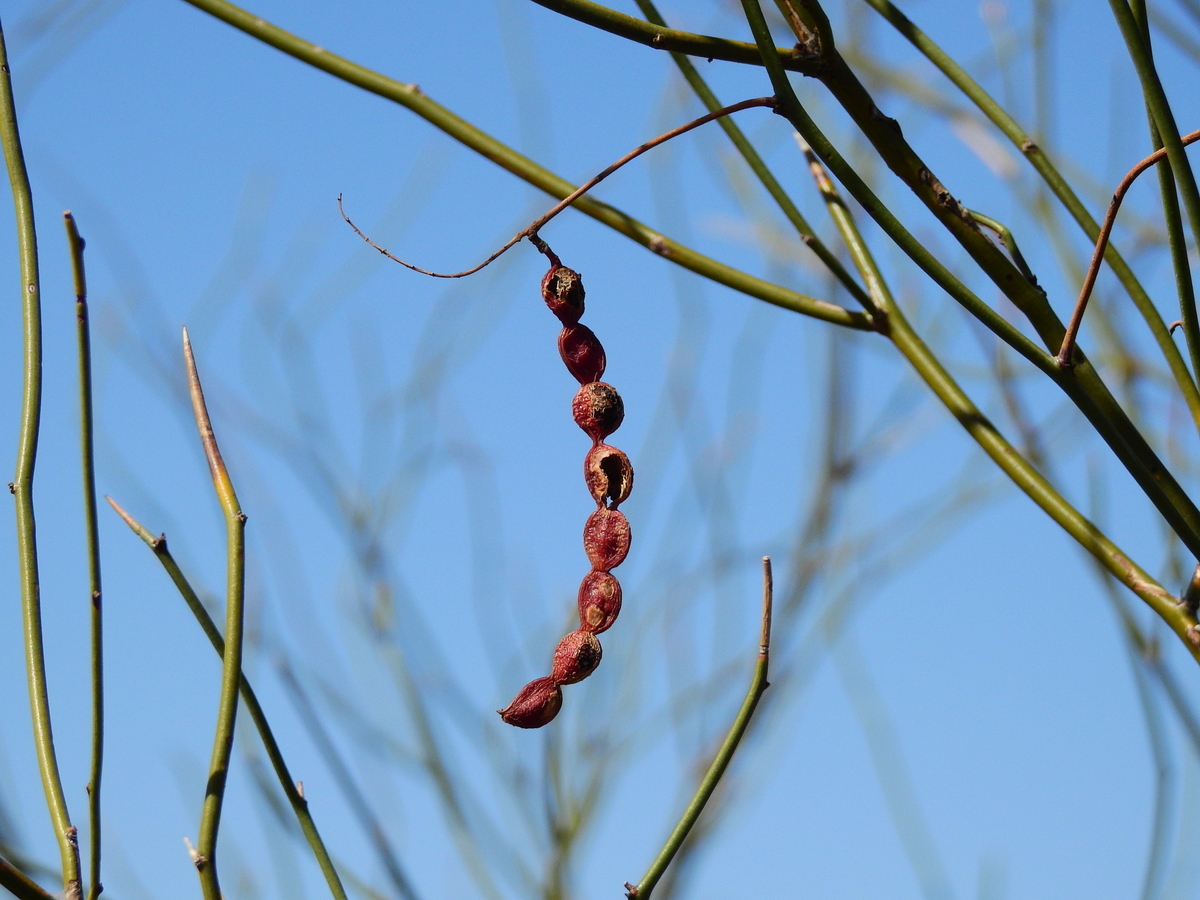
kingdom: Plantae
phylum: Tracheophyta
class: Magnoliopsida
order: Fabales
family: Fabaceae
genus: Prosopis
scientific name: Prosopis argentina
